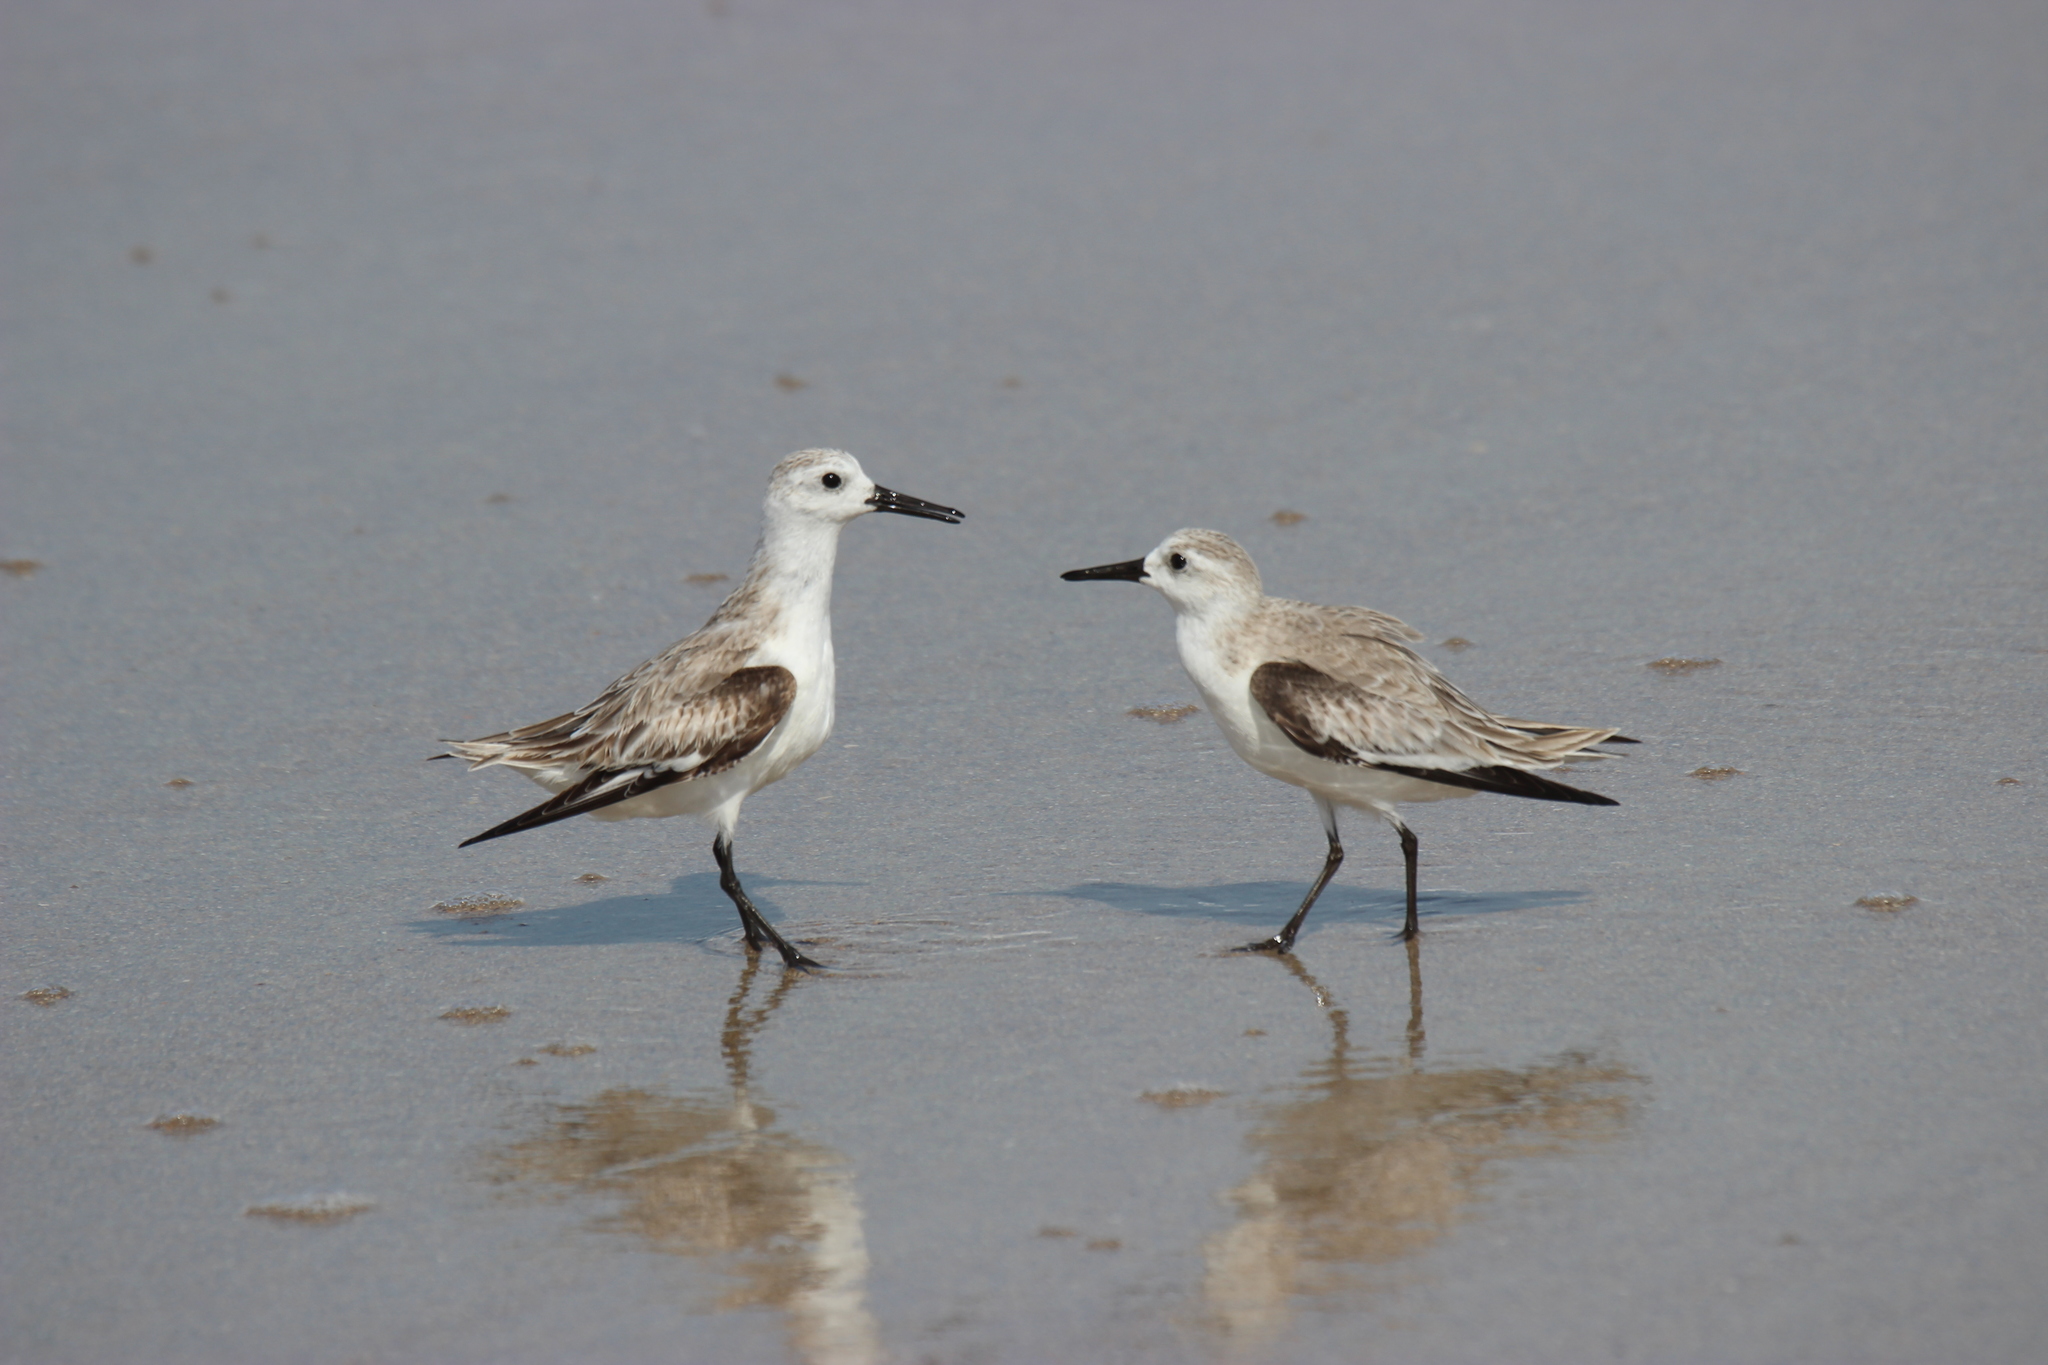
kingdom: Animalia
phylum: Chordata
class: Aves
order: Charadriiformes
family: Scolopacidae
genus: Calidris
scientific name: Calidris alba
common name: Sanderling
